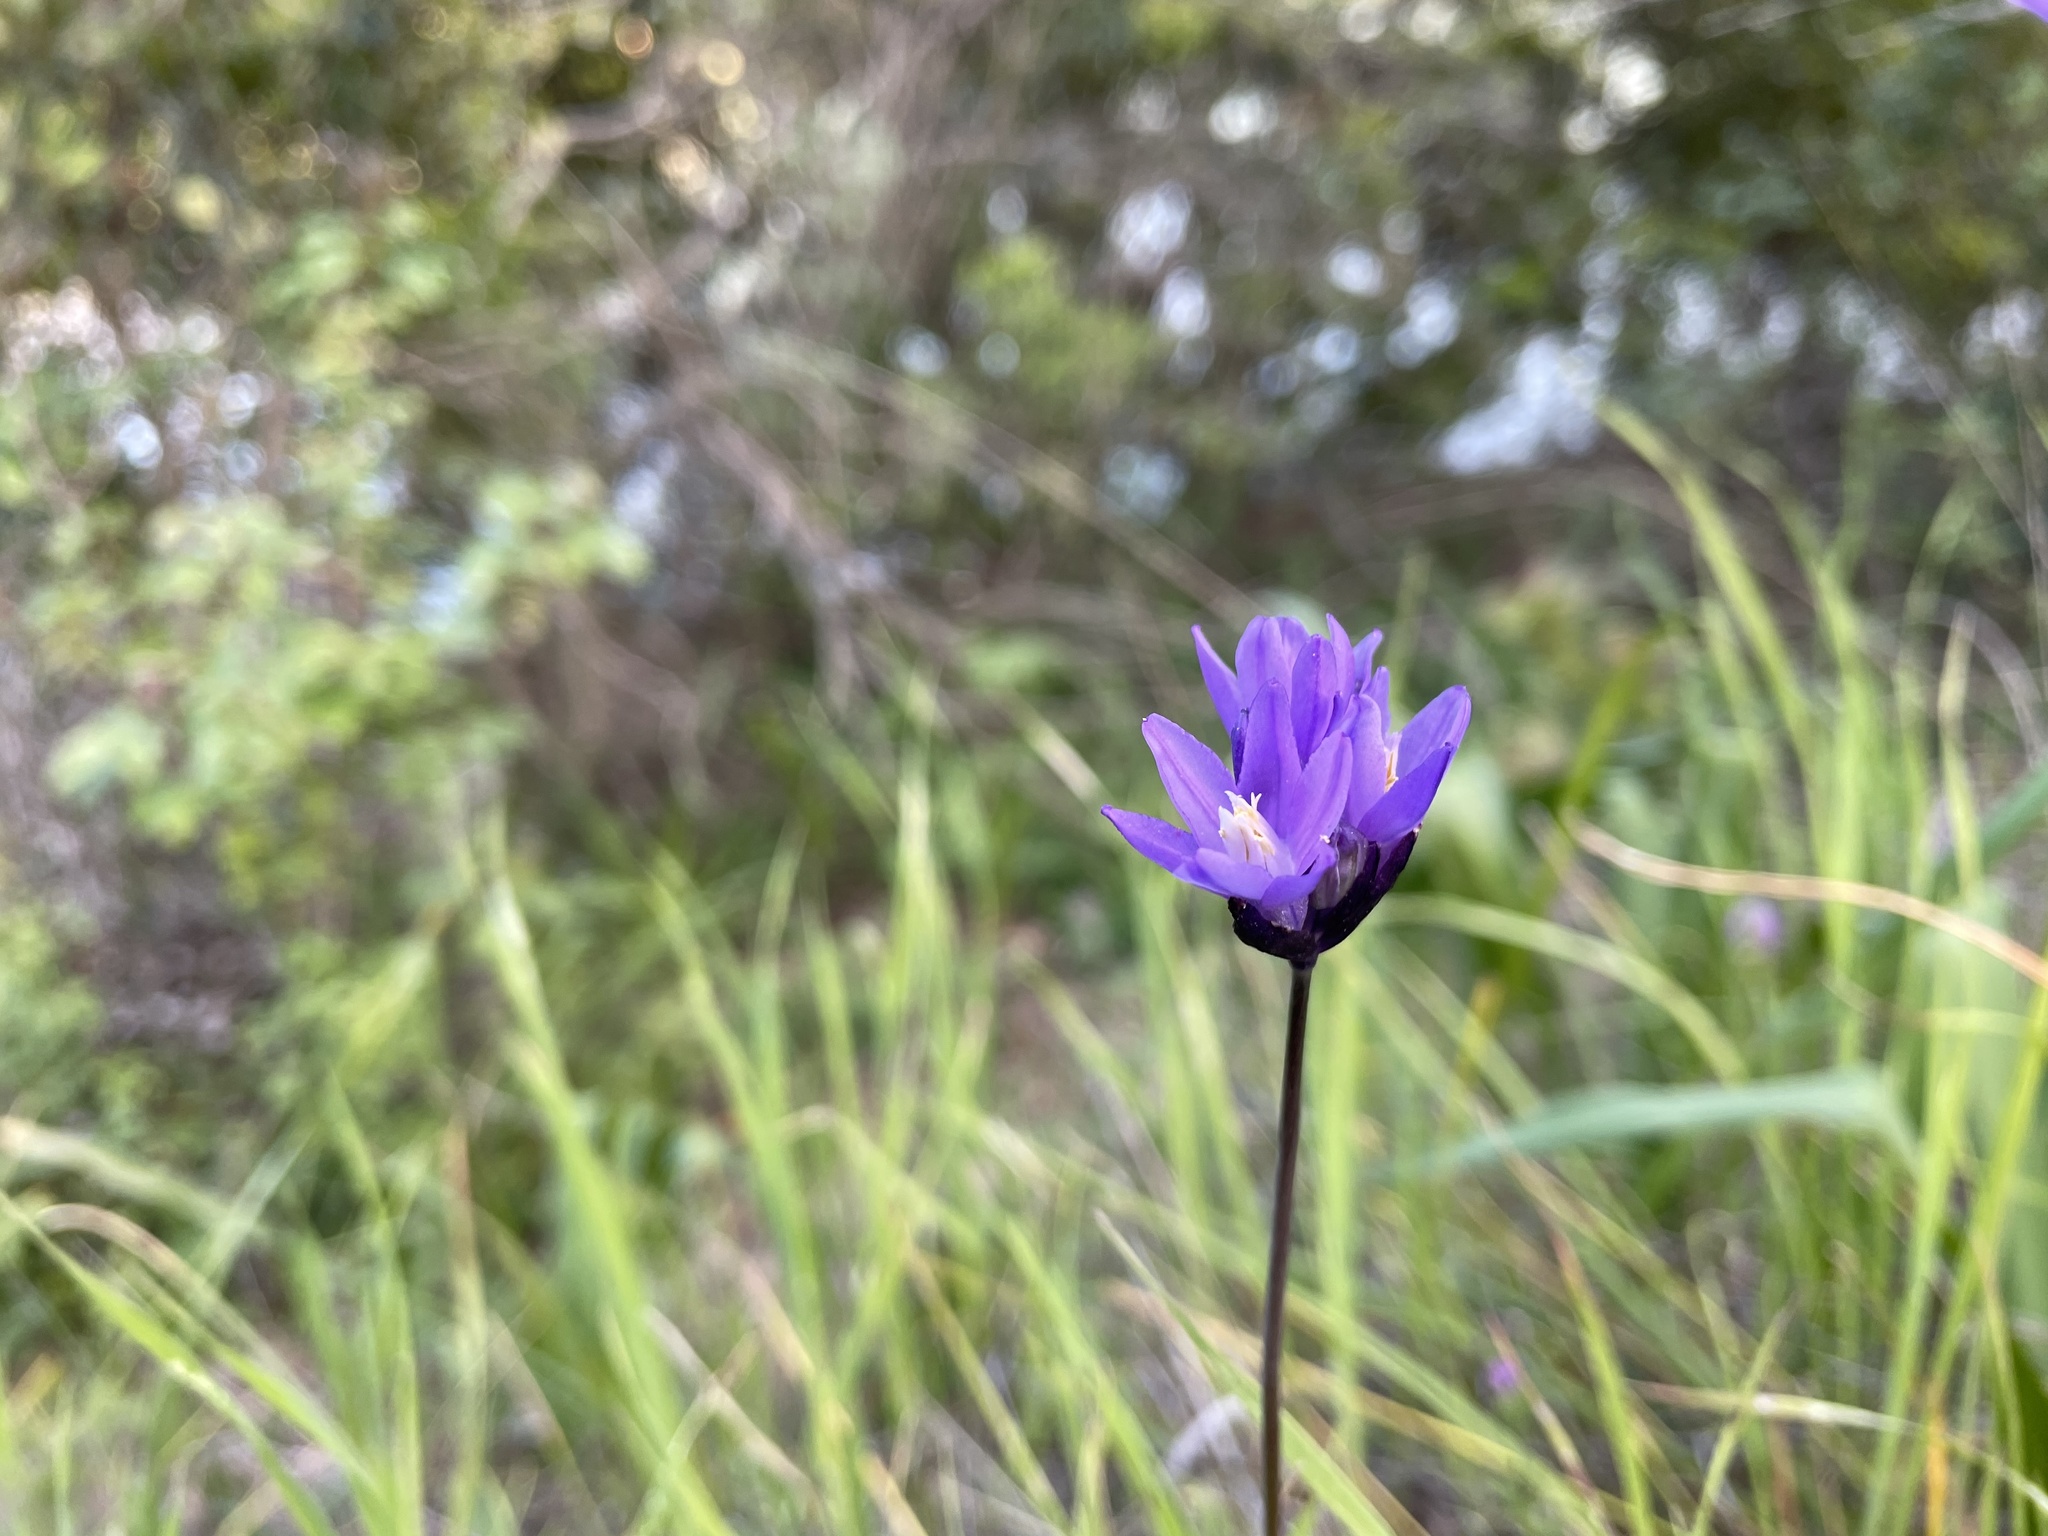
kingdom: Plantae
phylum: Tracheophyta
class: Liliopsida
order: Asparagales
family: Asparagaceae
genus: Dipterostemon
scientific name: Dipterostemon capitatus
